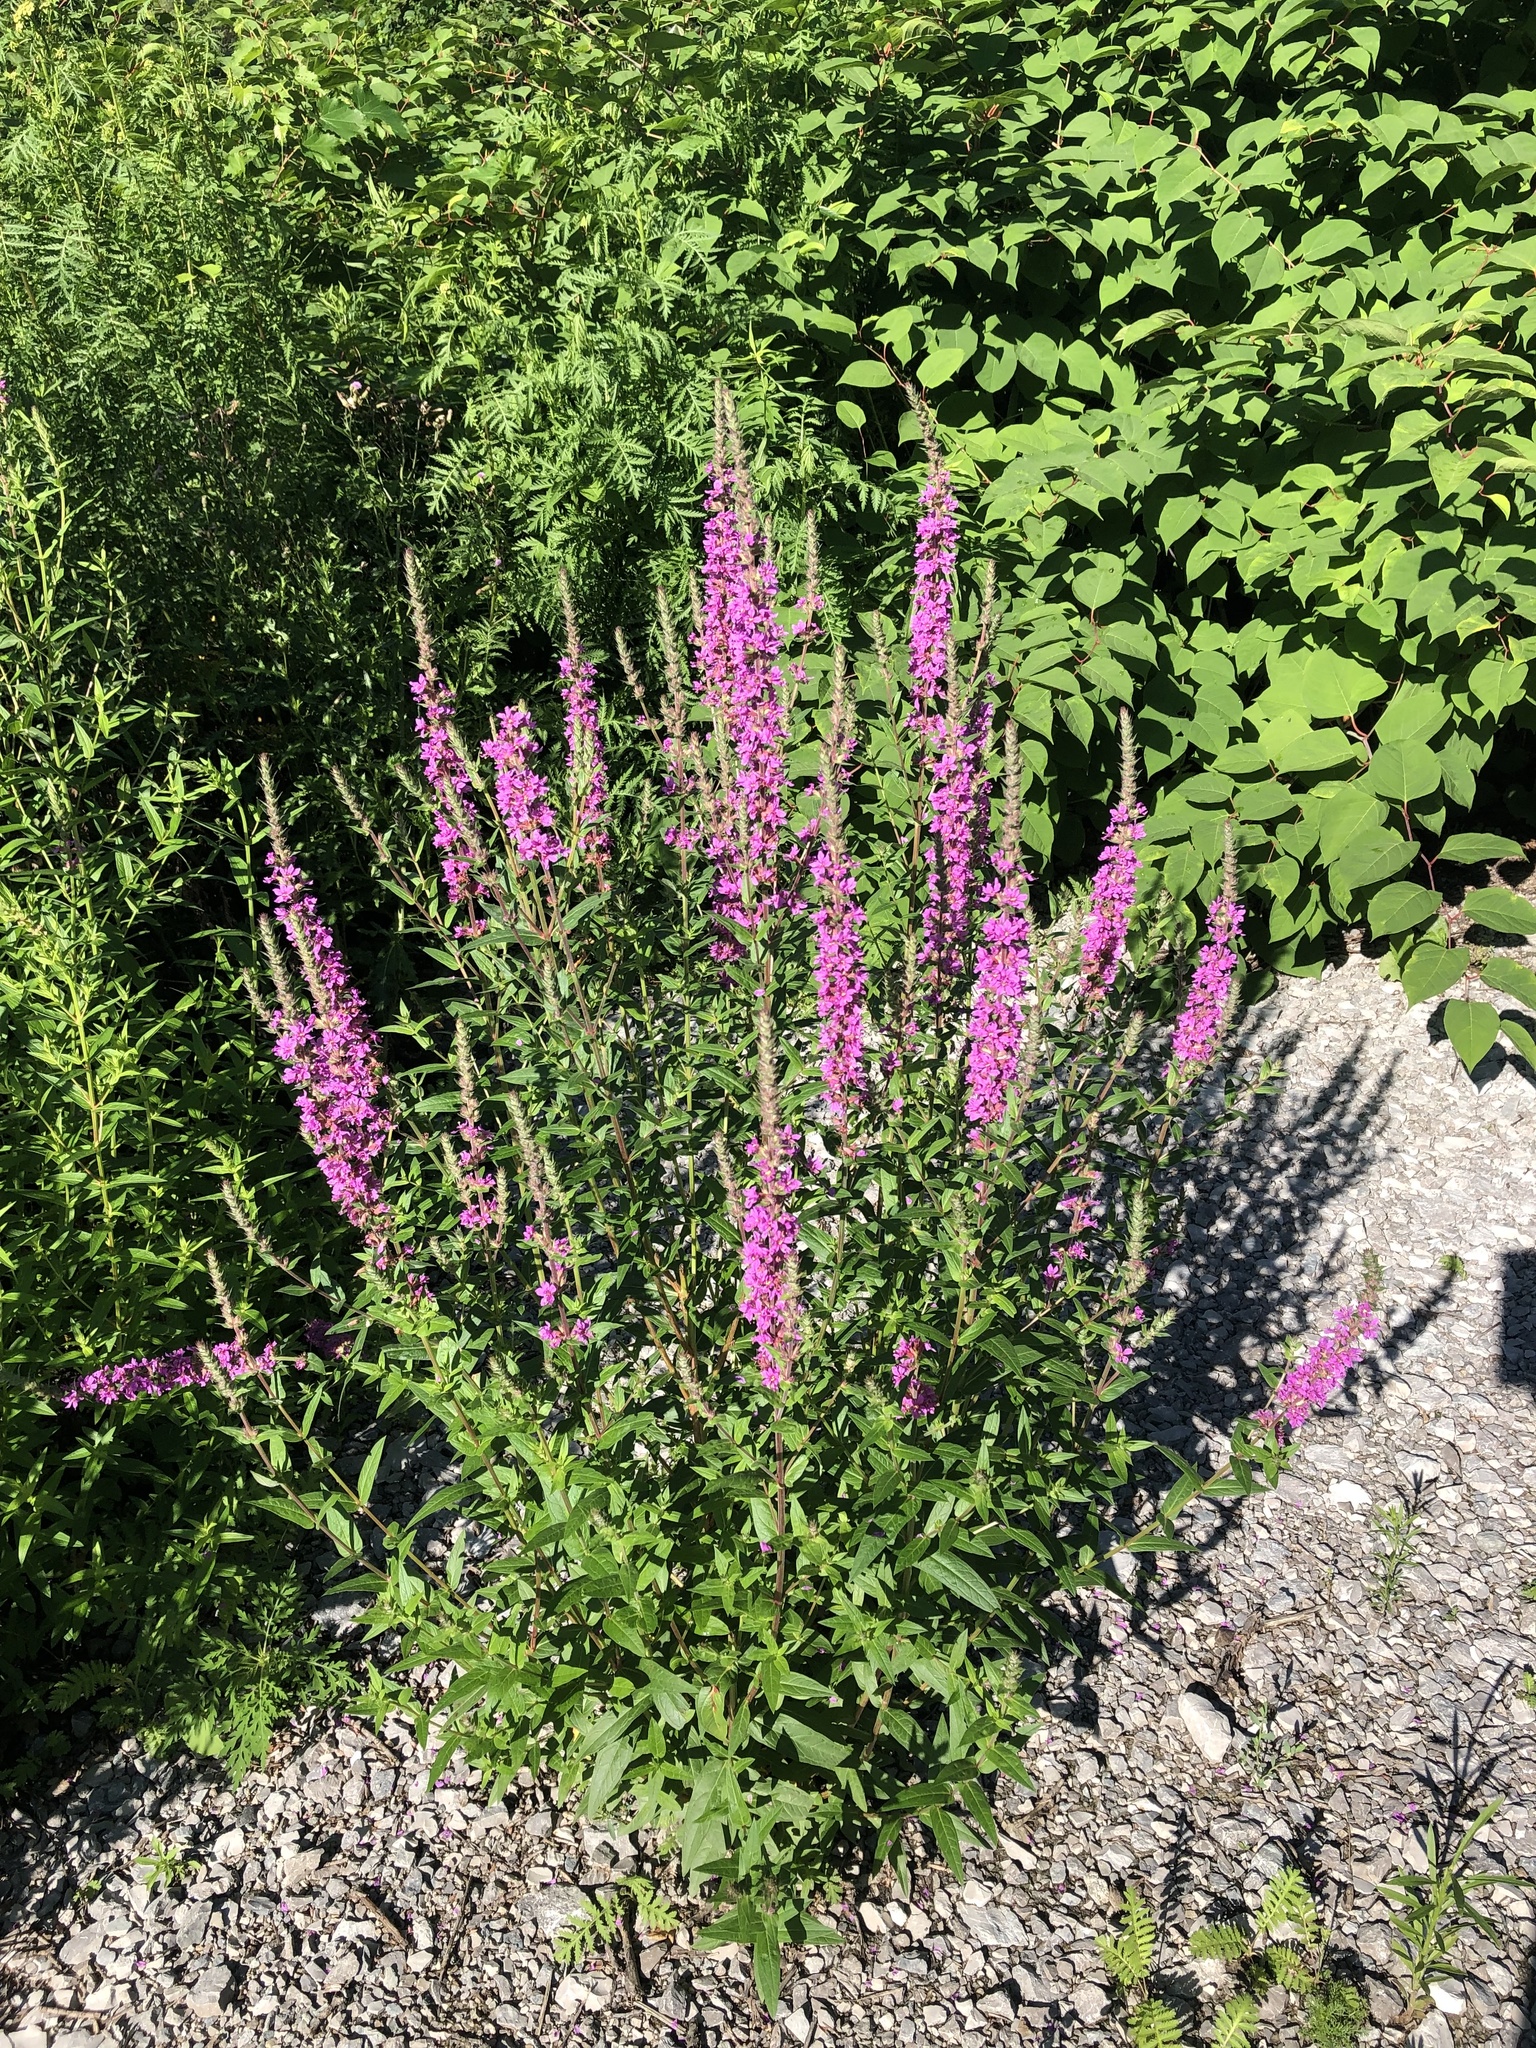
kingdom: Plantae
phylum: Tracheophyta
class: Magnoliopsida
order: Myrtales
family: Lythraceae
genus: Lythrum
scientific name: Lythrum salicaria
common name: Purple loosestrife
